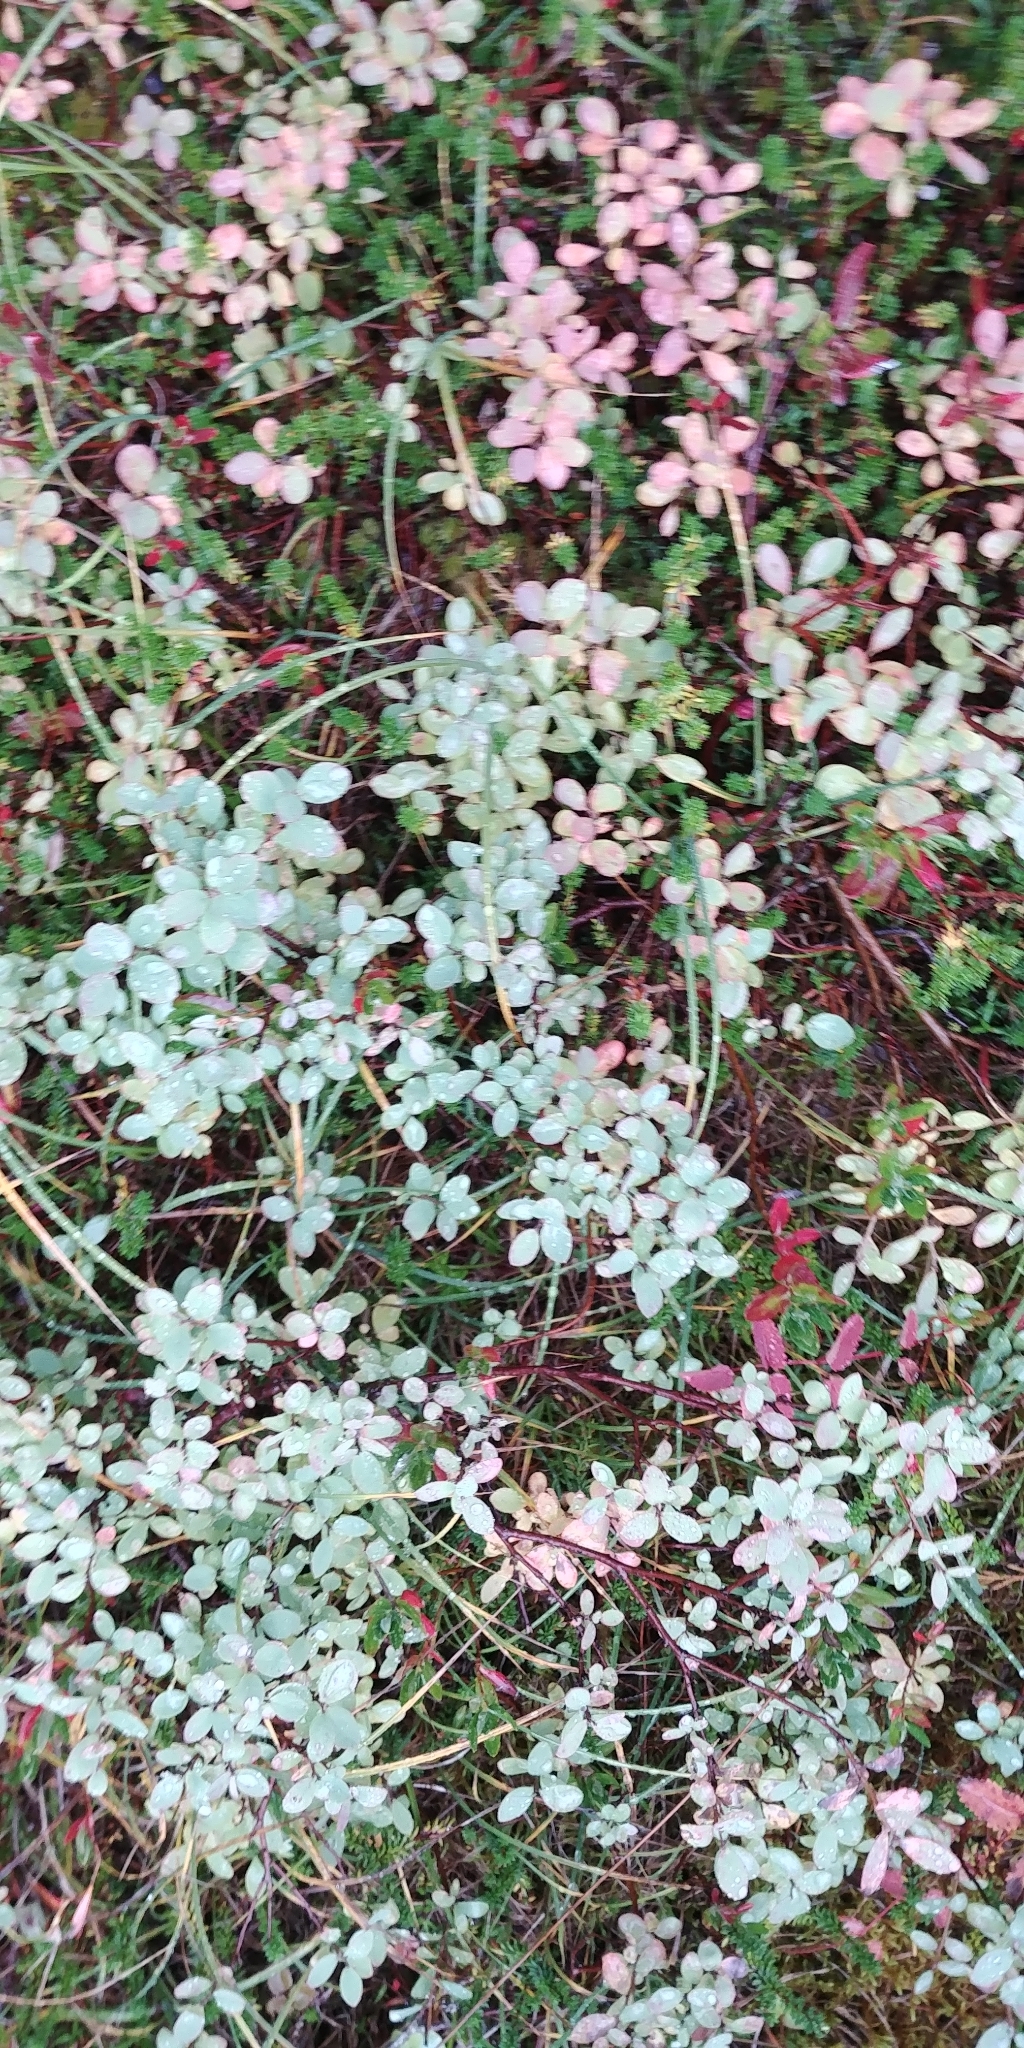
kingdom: Plantae
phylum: Tracheophyta
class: Magnoliopsida
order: Ericales
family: Ericaceae
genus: Vaccinium
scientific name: Vaccinium uliginosum
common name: Bog bilberry
